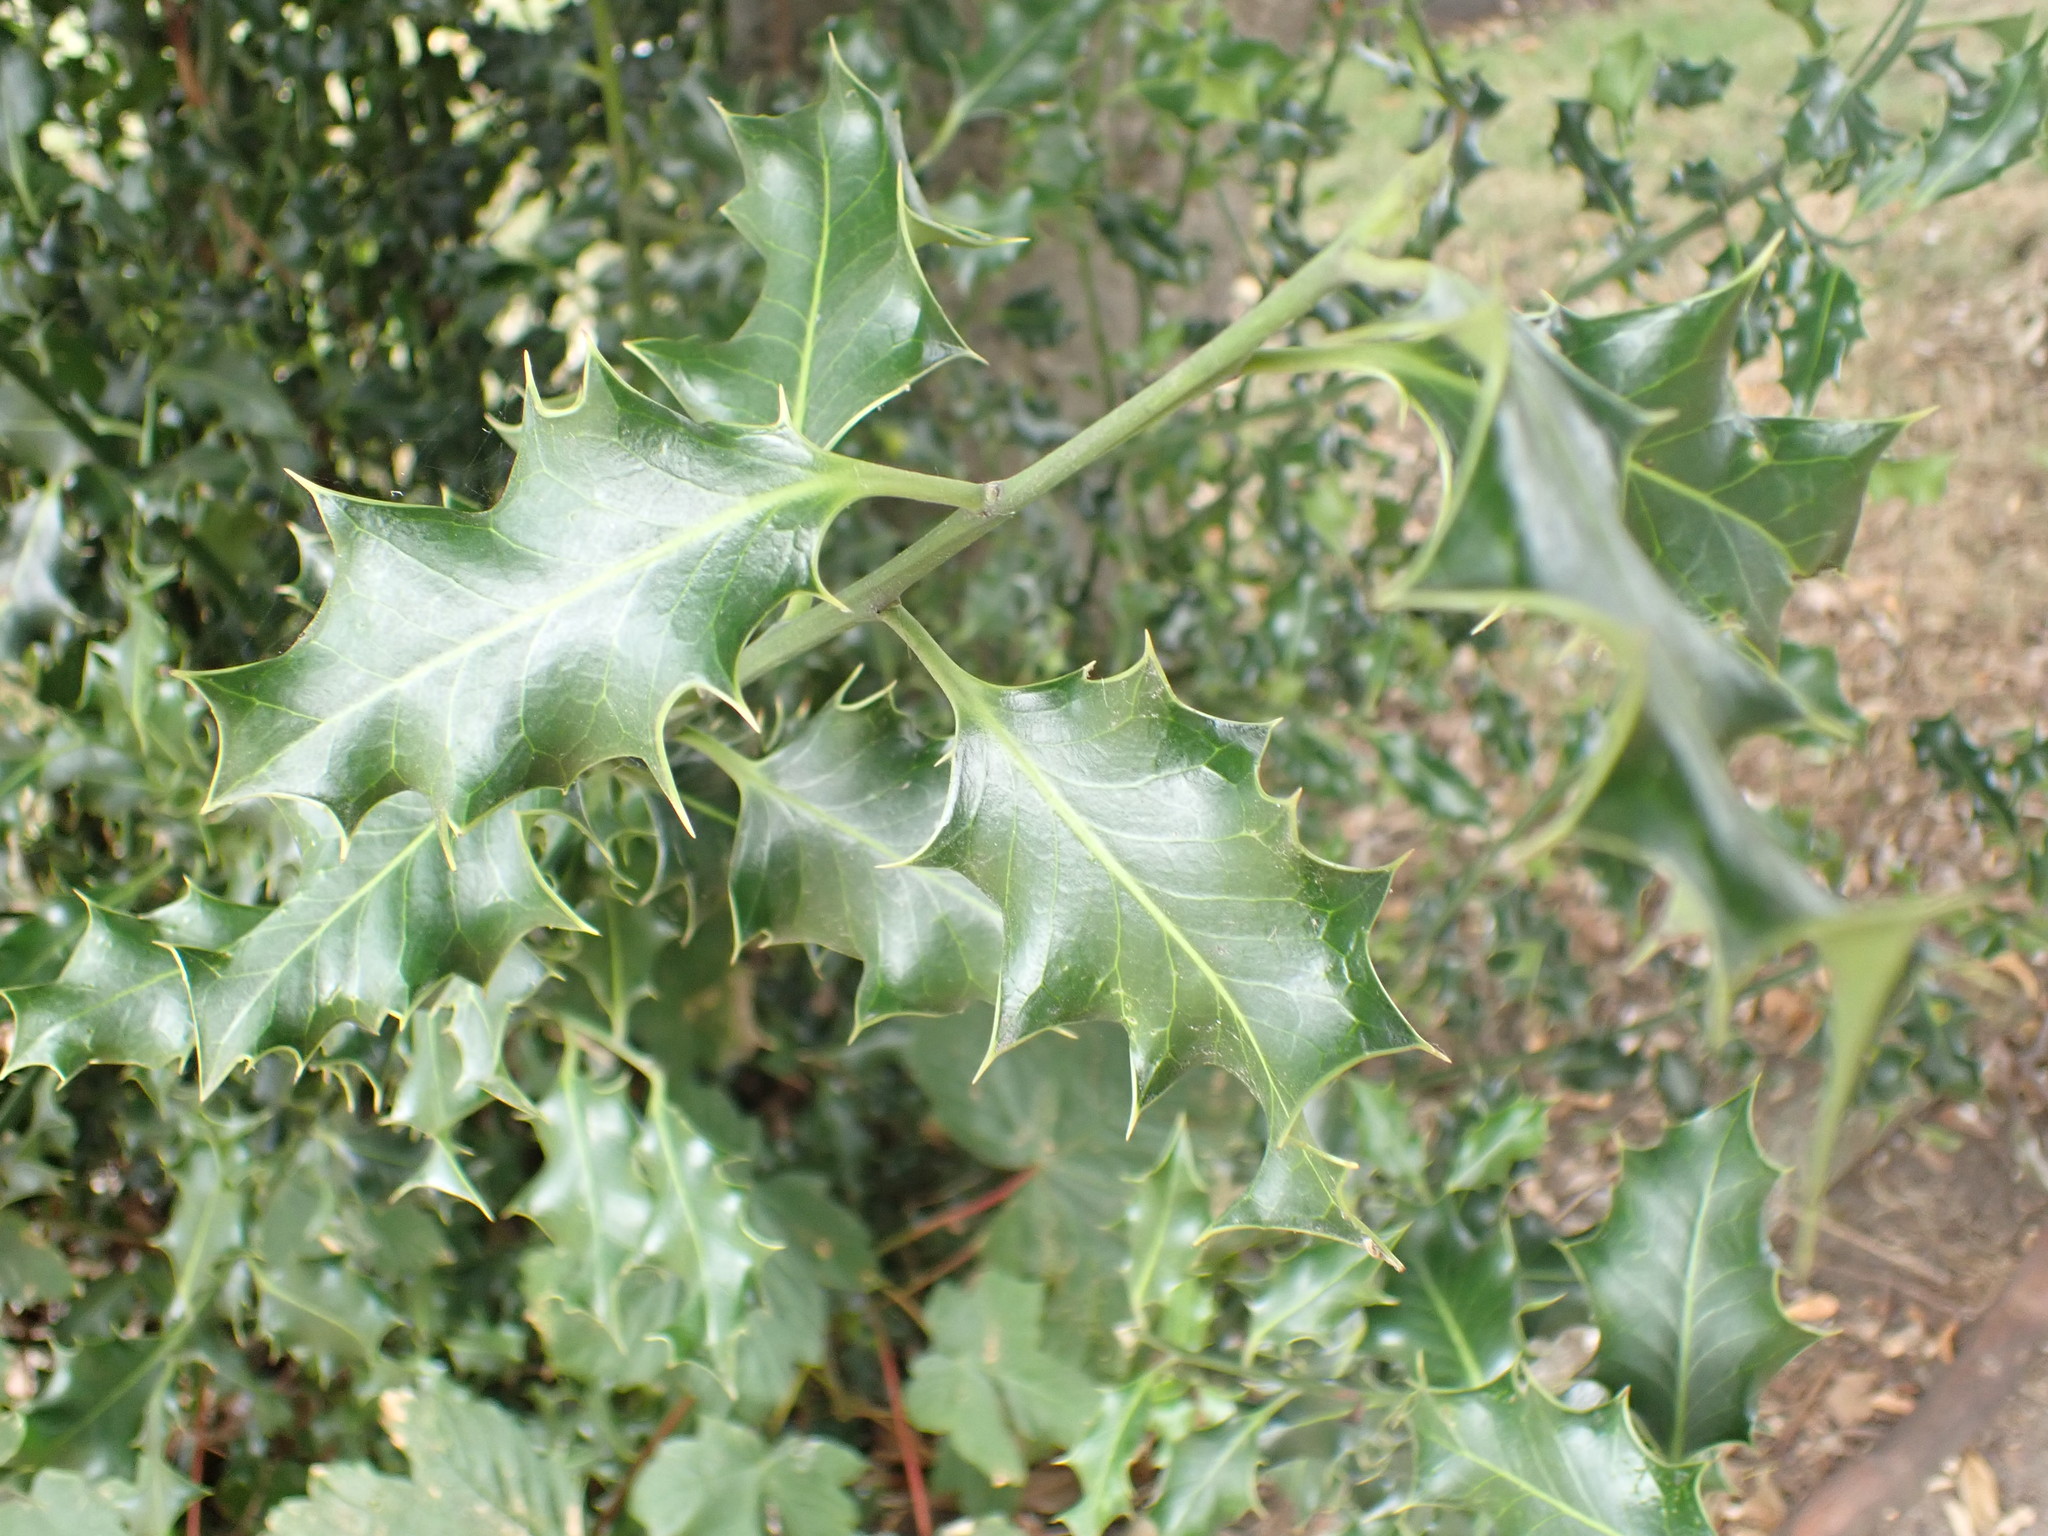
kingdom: Plantae
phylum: Tracheophyta
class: Magnoliopsida
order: Aquifoliales
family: Aquifoliaceae
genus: Ilex
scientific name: Ilex aquifolium
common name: English holly
